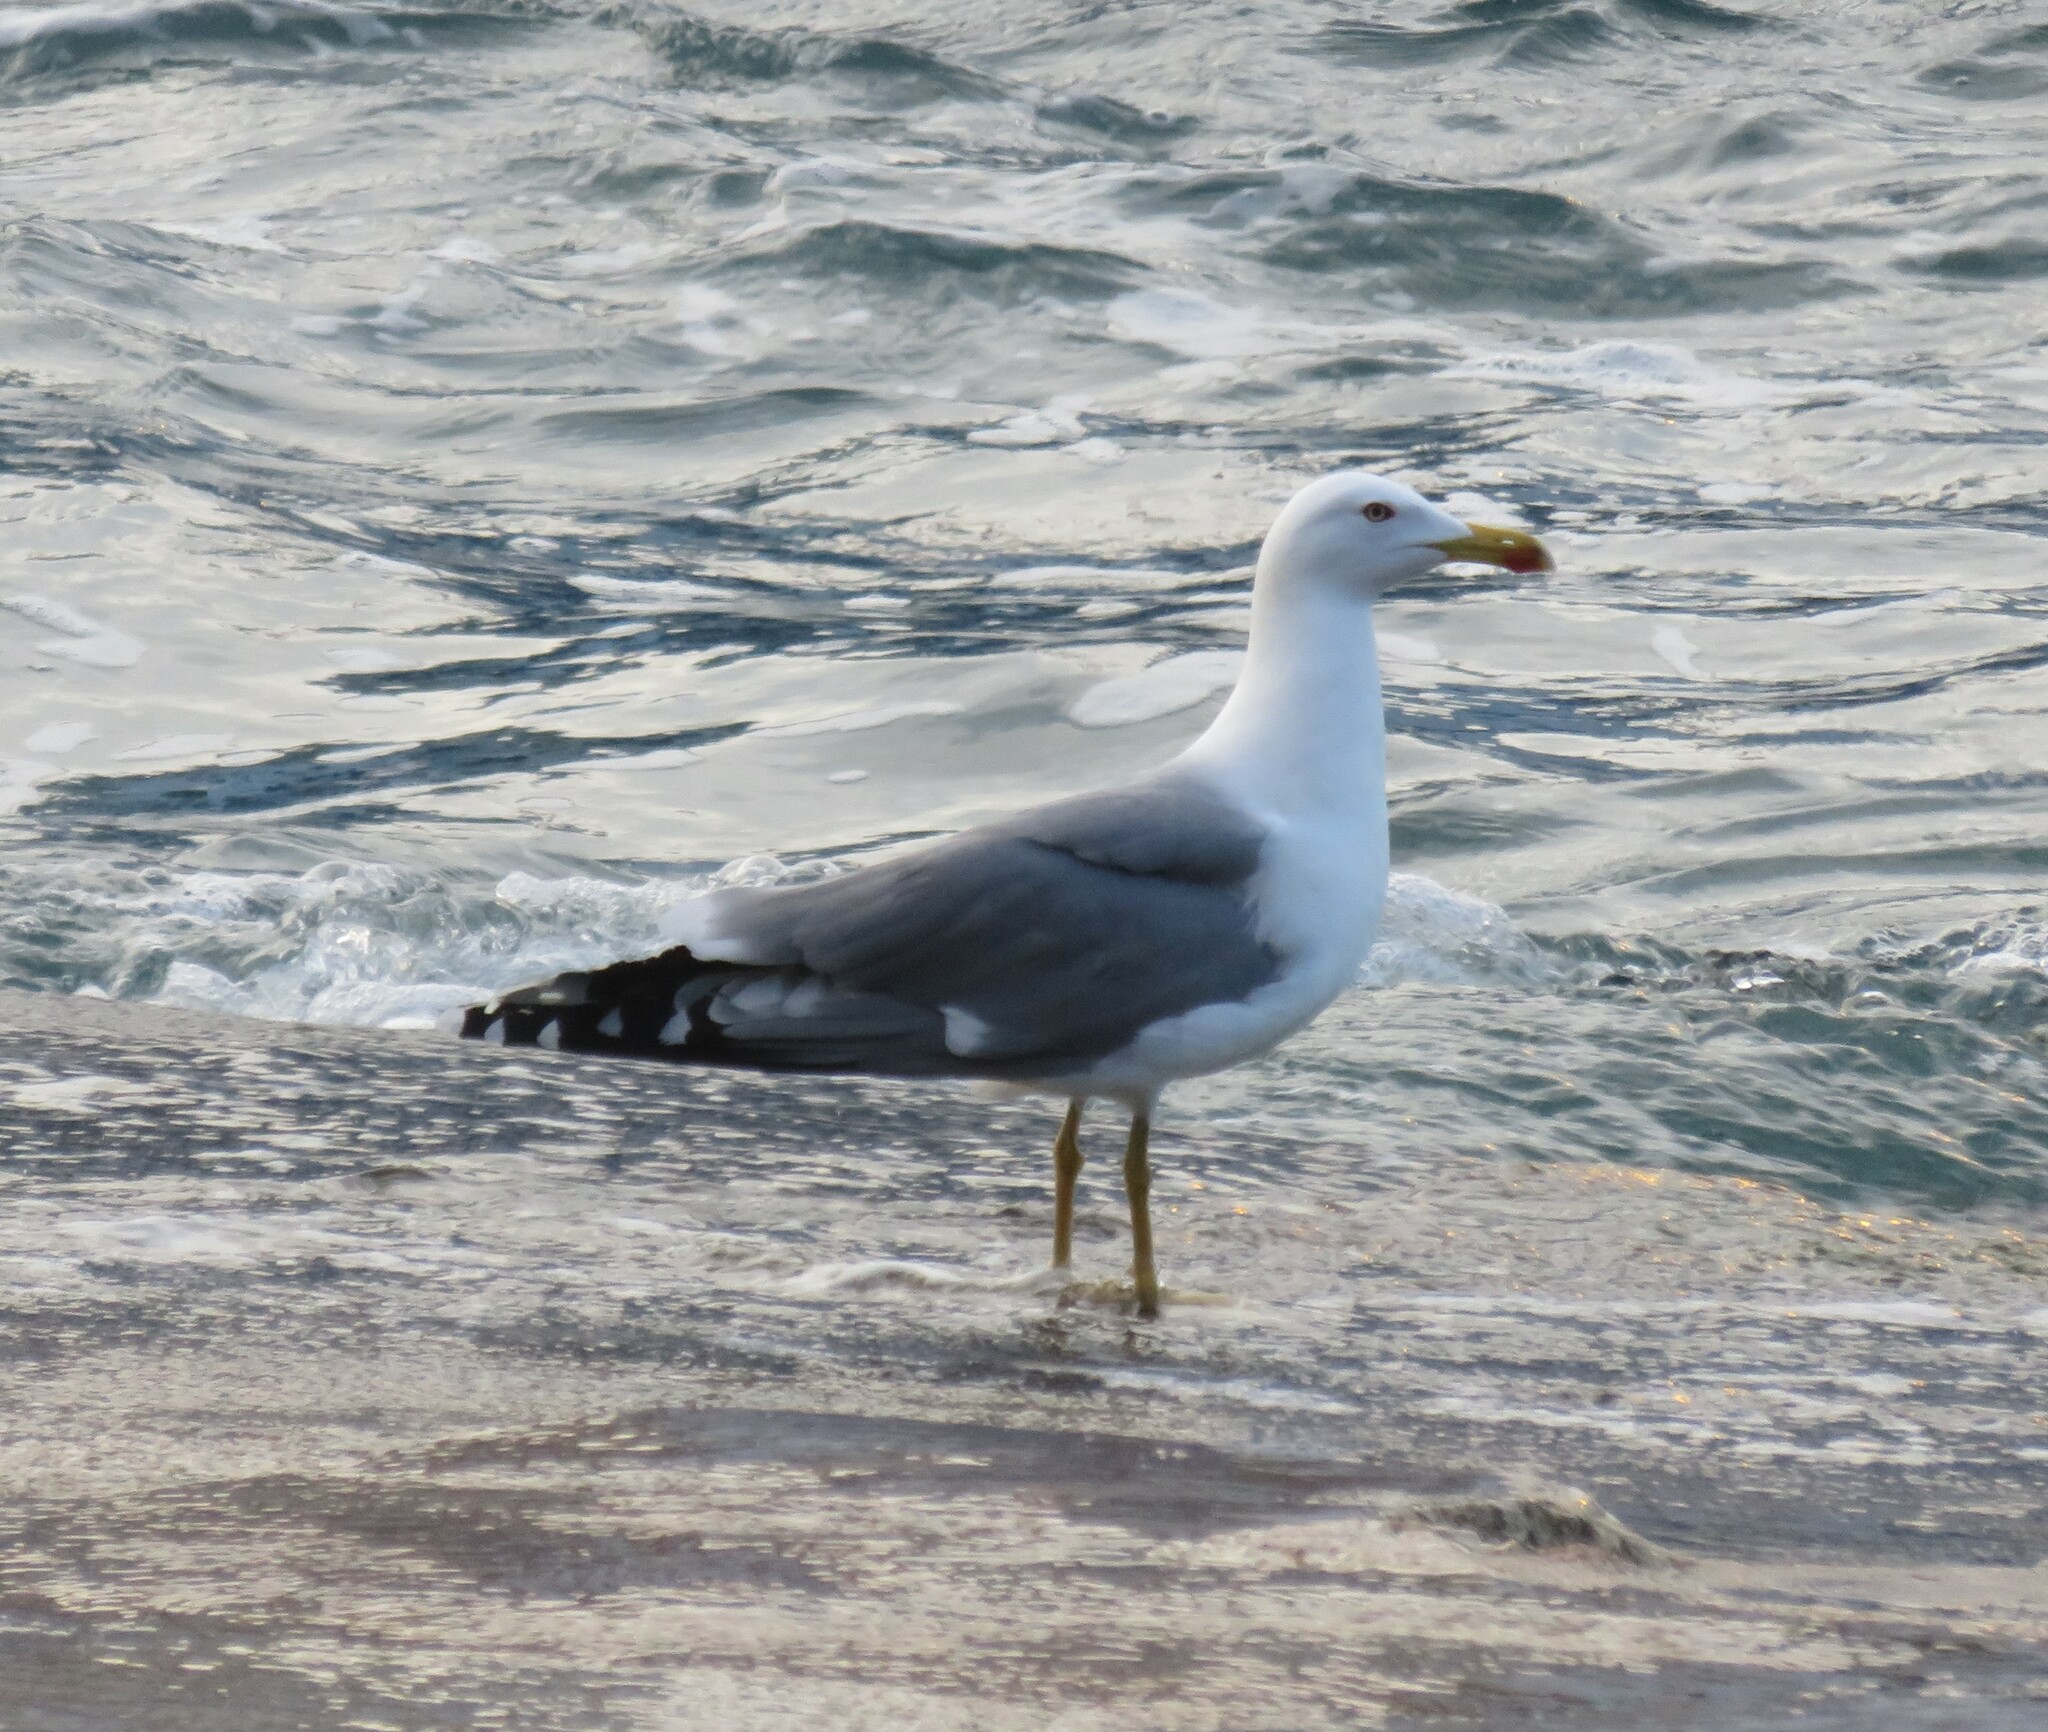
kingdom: Animalia
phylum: Chordata
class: Aves
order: Charadriiformes
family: Laridae
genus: Larus
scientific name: Larus michahellis
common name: Yellow-legged gull
